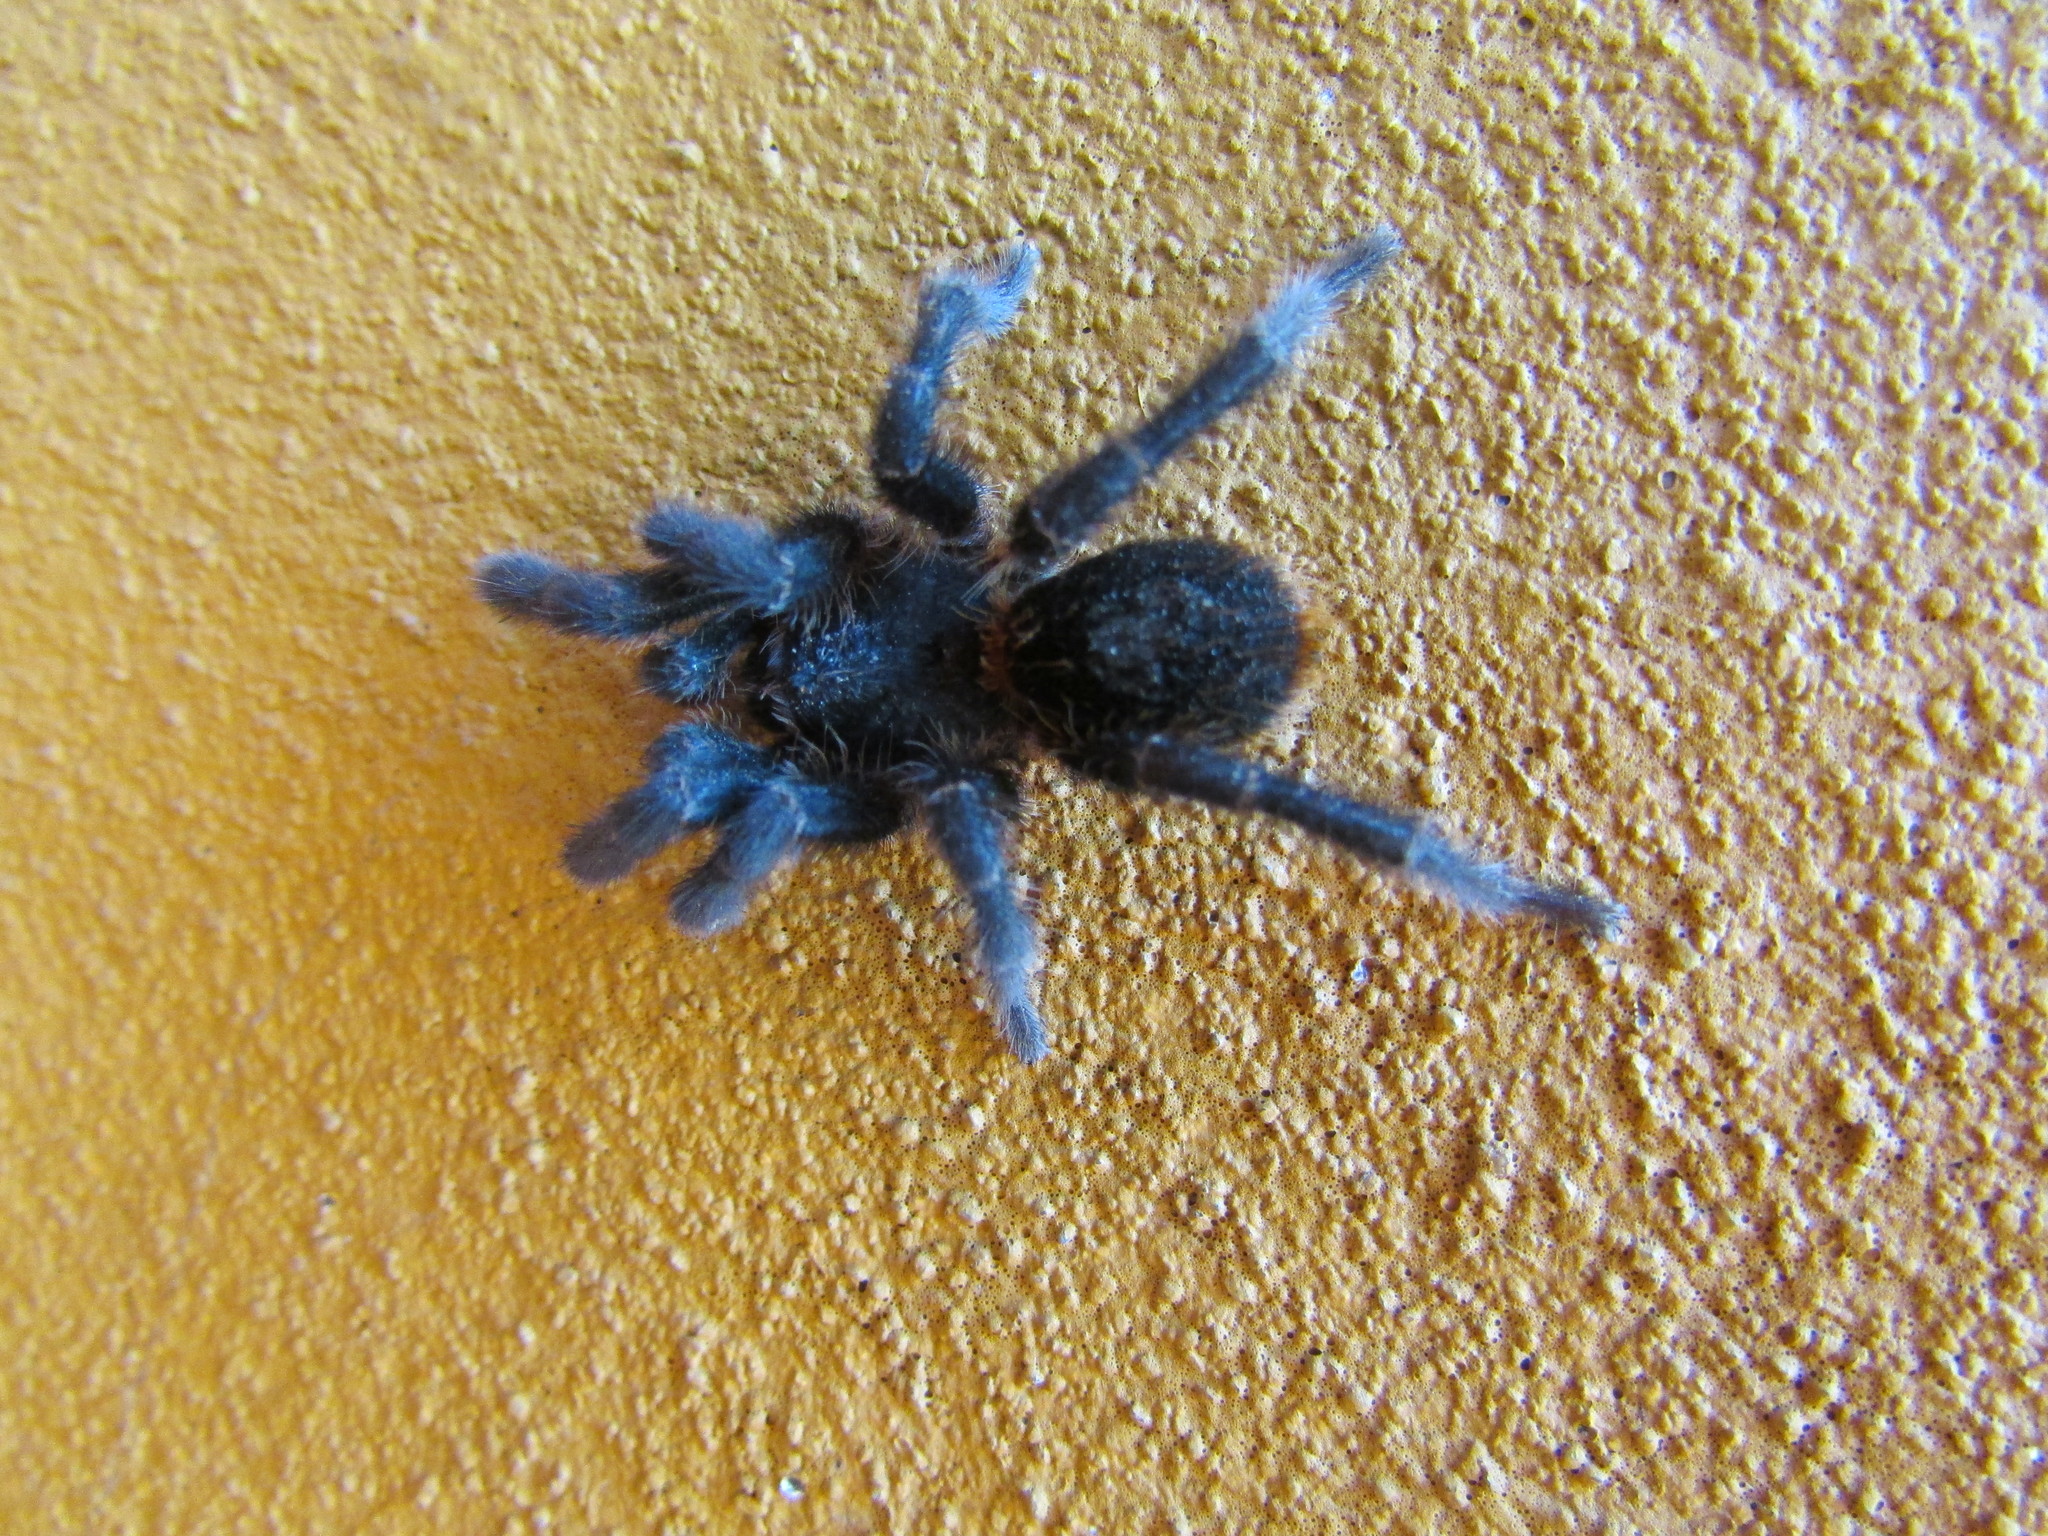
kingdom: Animalia
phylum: Arthropoda
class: Arachnida
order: Araneae
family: Theraphosidae
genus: Homoeomma
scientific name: Homoeomma uruguayense
